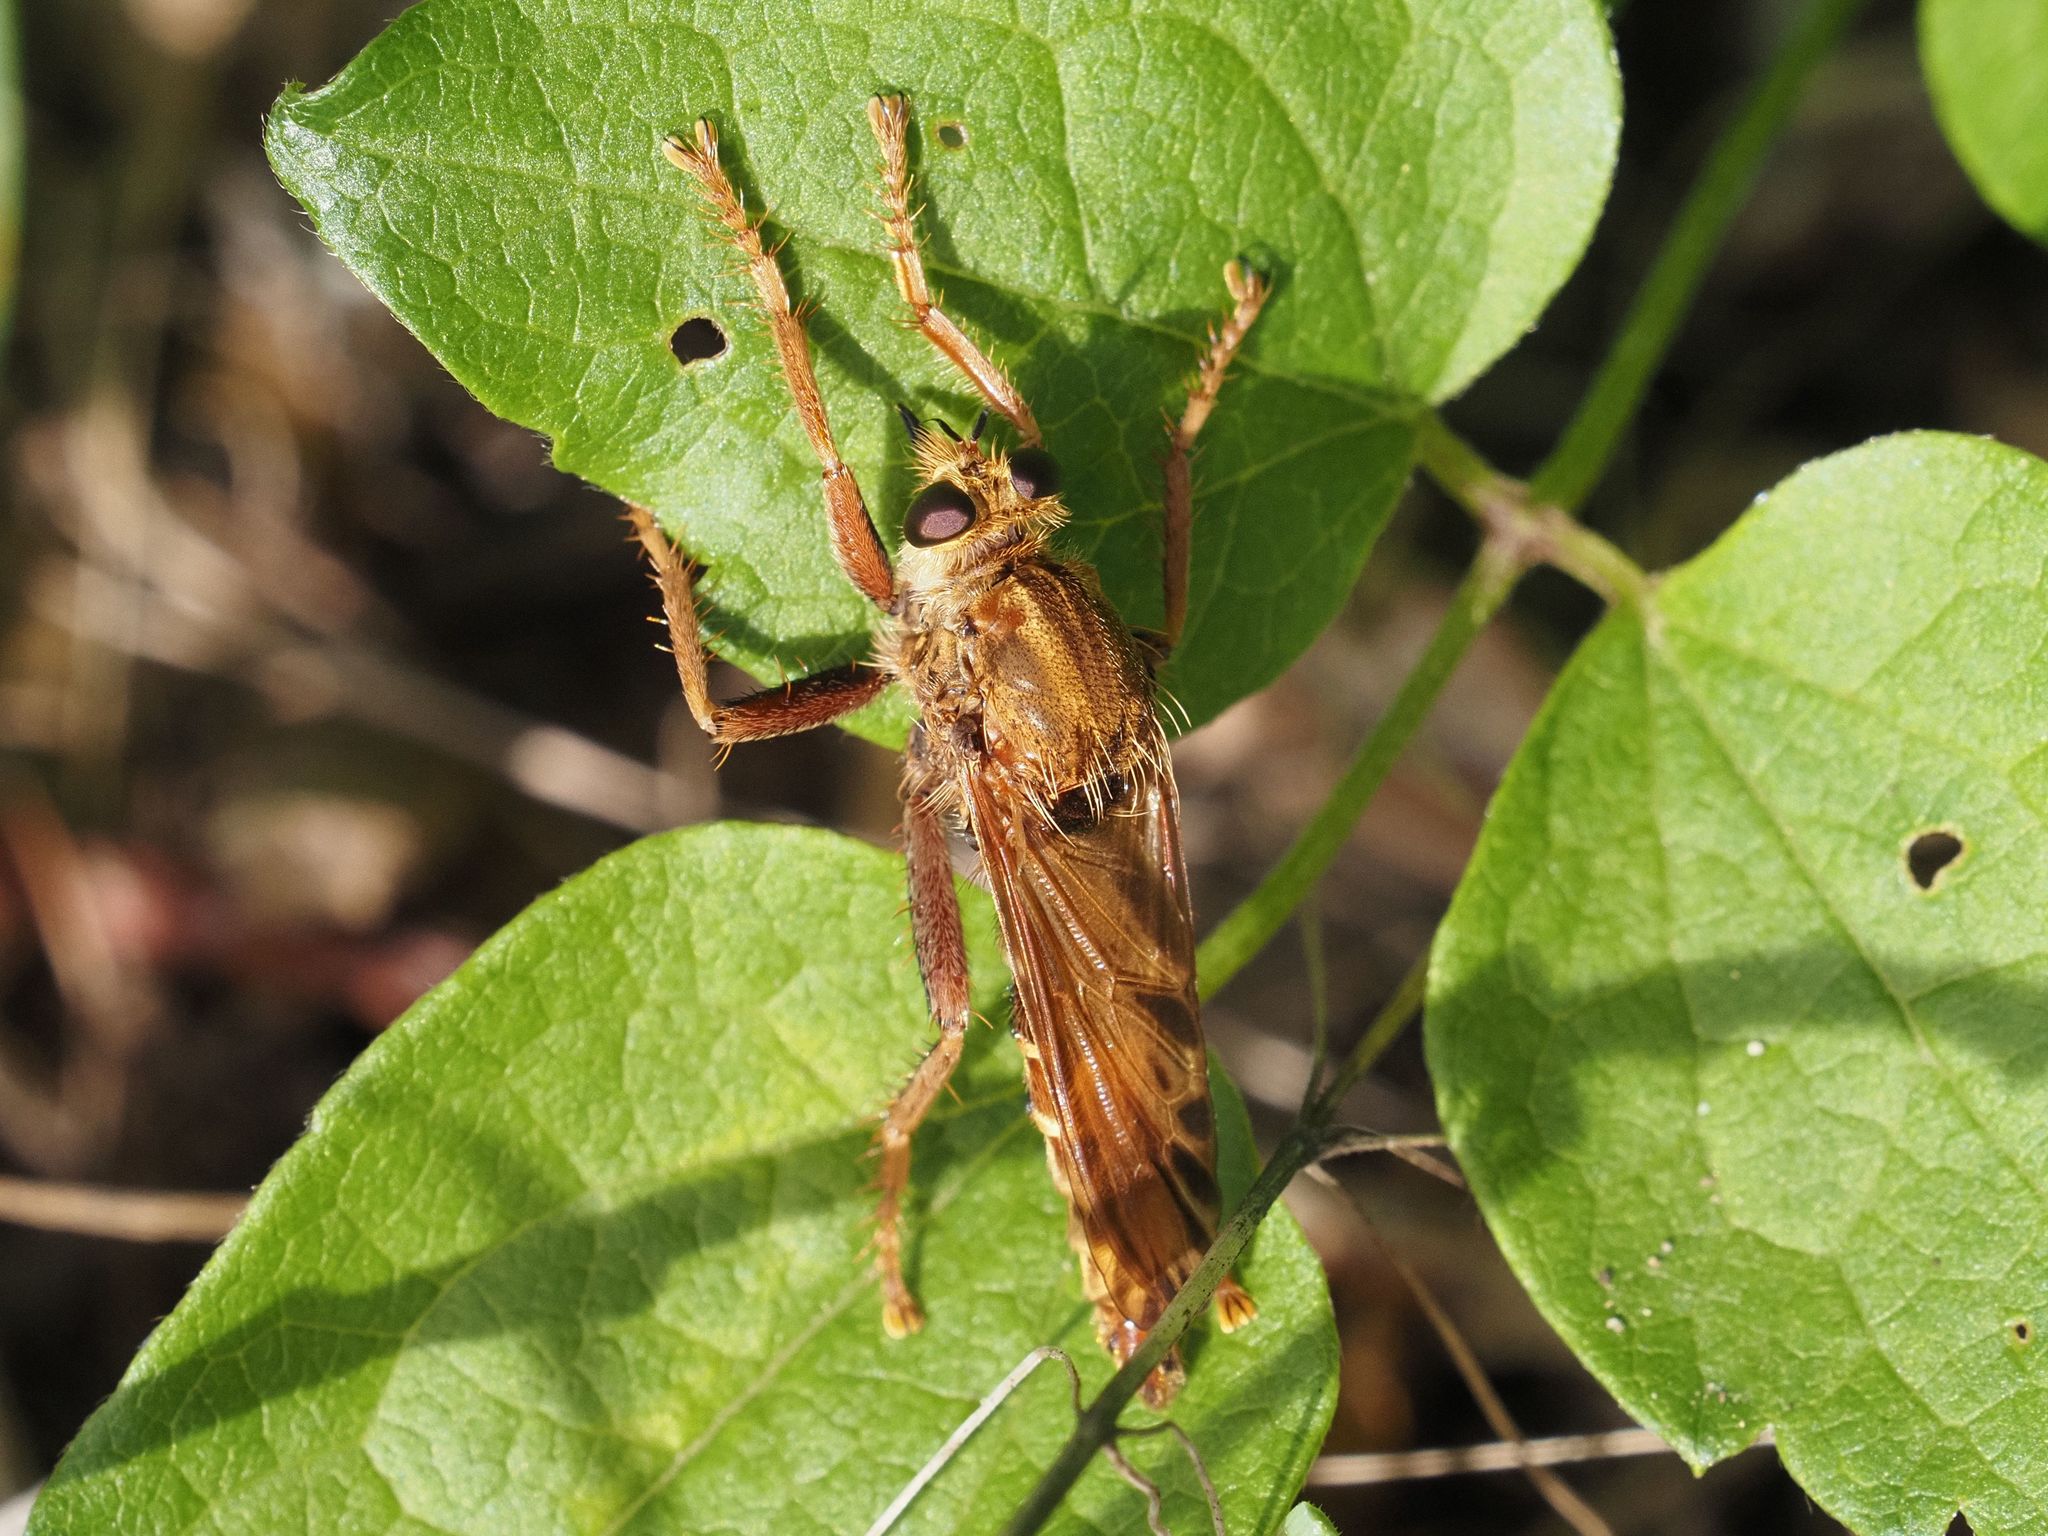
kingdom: Animalia
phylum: Arthropoda
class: Insecta
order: Diptera
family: Asilidae
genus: Asilus
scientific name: Asilus crabroniformis
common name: Hornet robberfly
